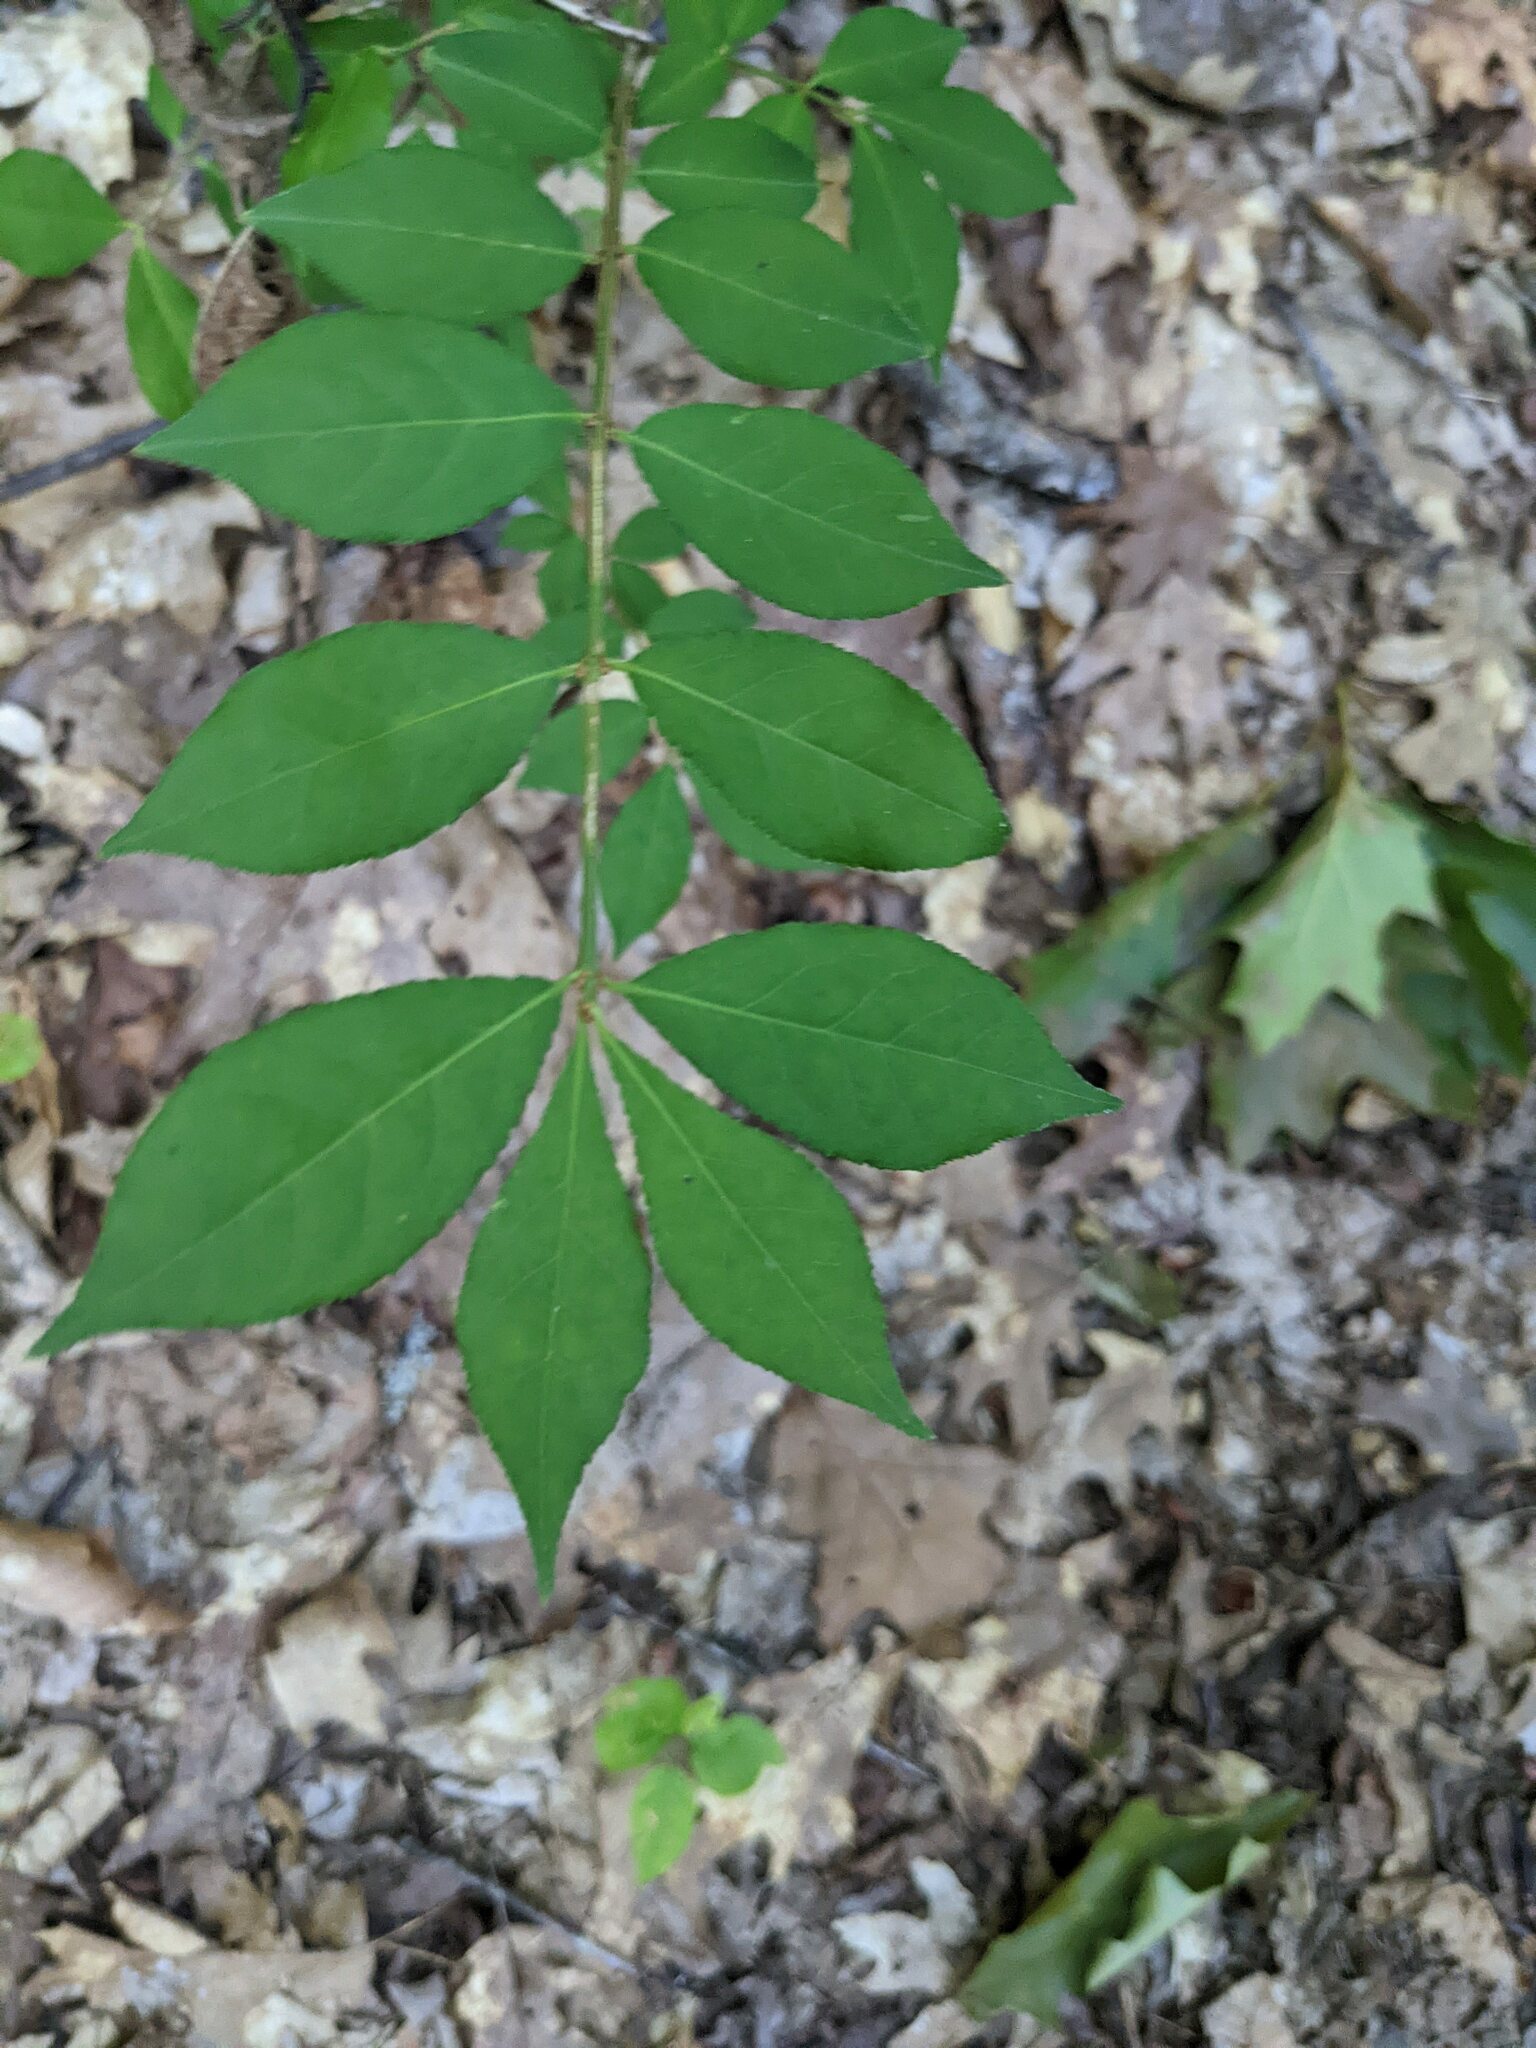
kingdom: Plantae
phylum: Tracheophyta
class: Magnoliopsida
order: Celastrales
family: Celastraceae
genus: Euonymus
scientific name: Euonymus alatus
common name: Winged euonymus
